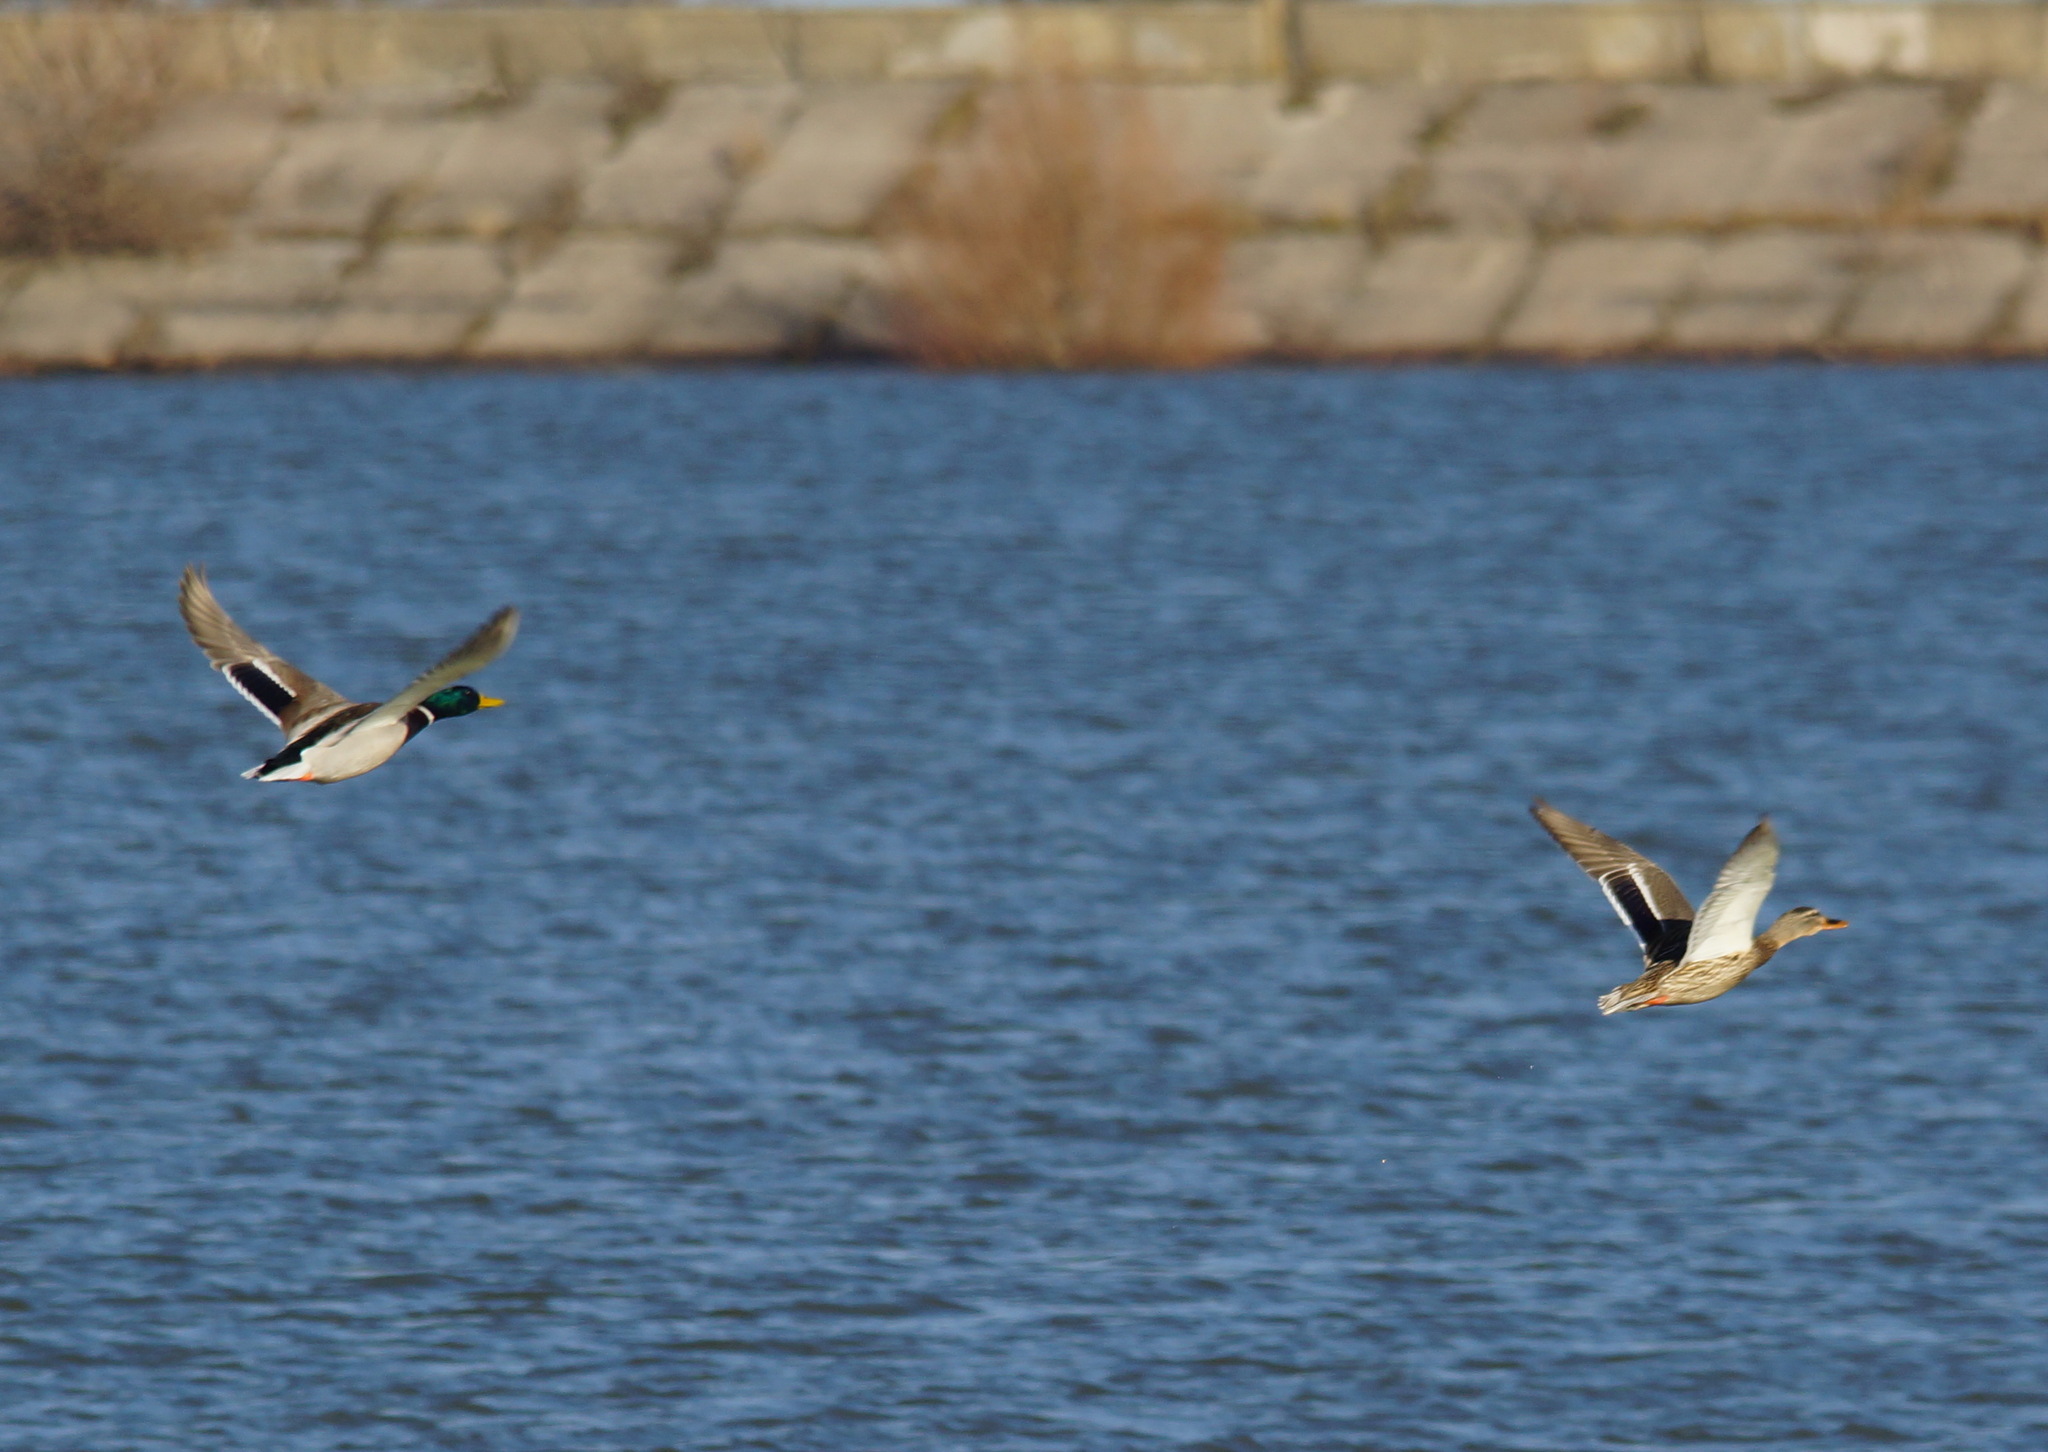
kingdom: Animalia
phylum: Chordata
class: Aves
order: Anseriformes
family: Anatidae
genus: Anas
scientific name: Anas platyrhynchos
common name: Mallard
